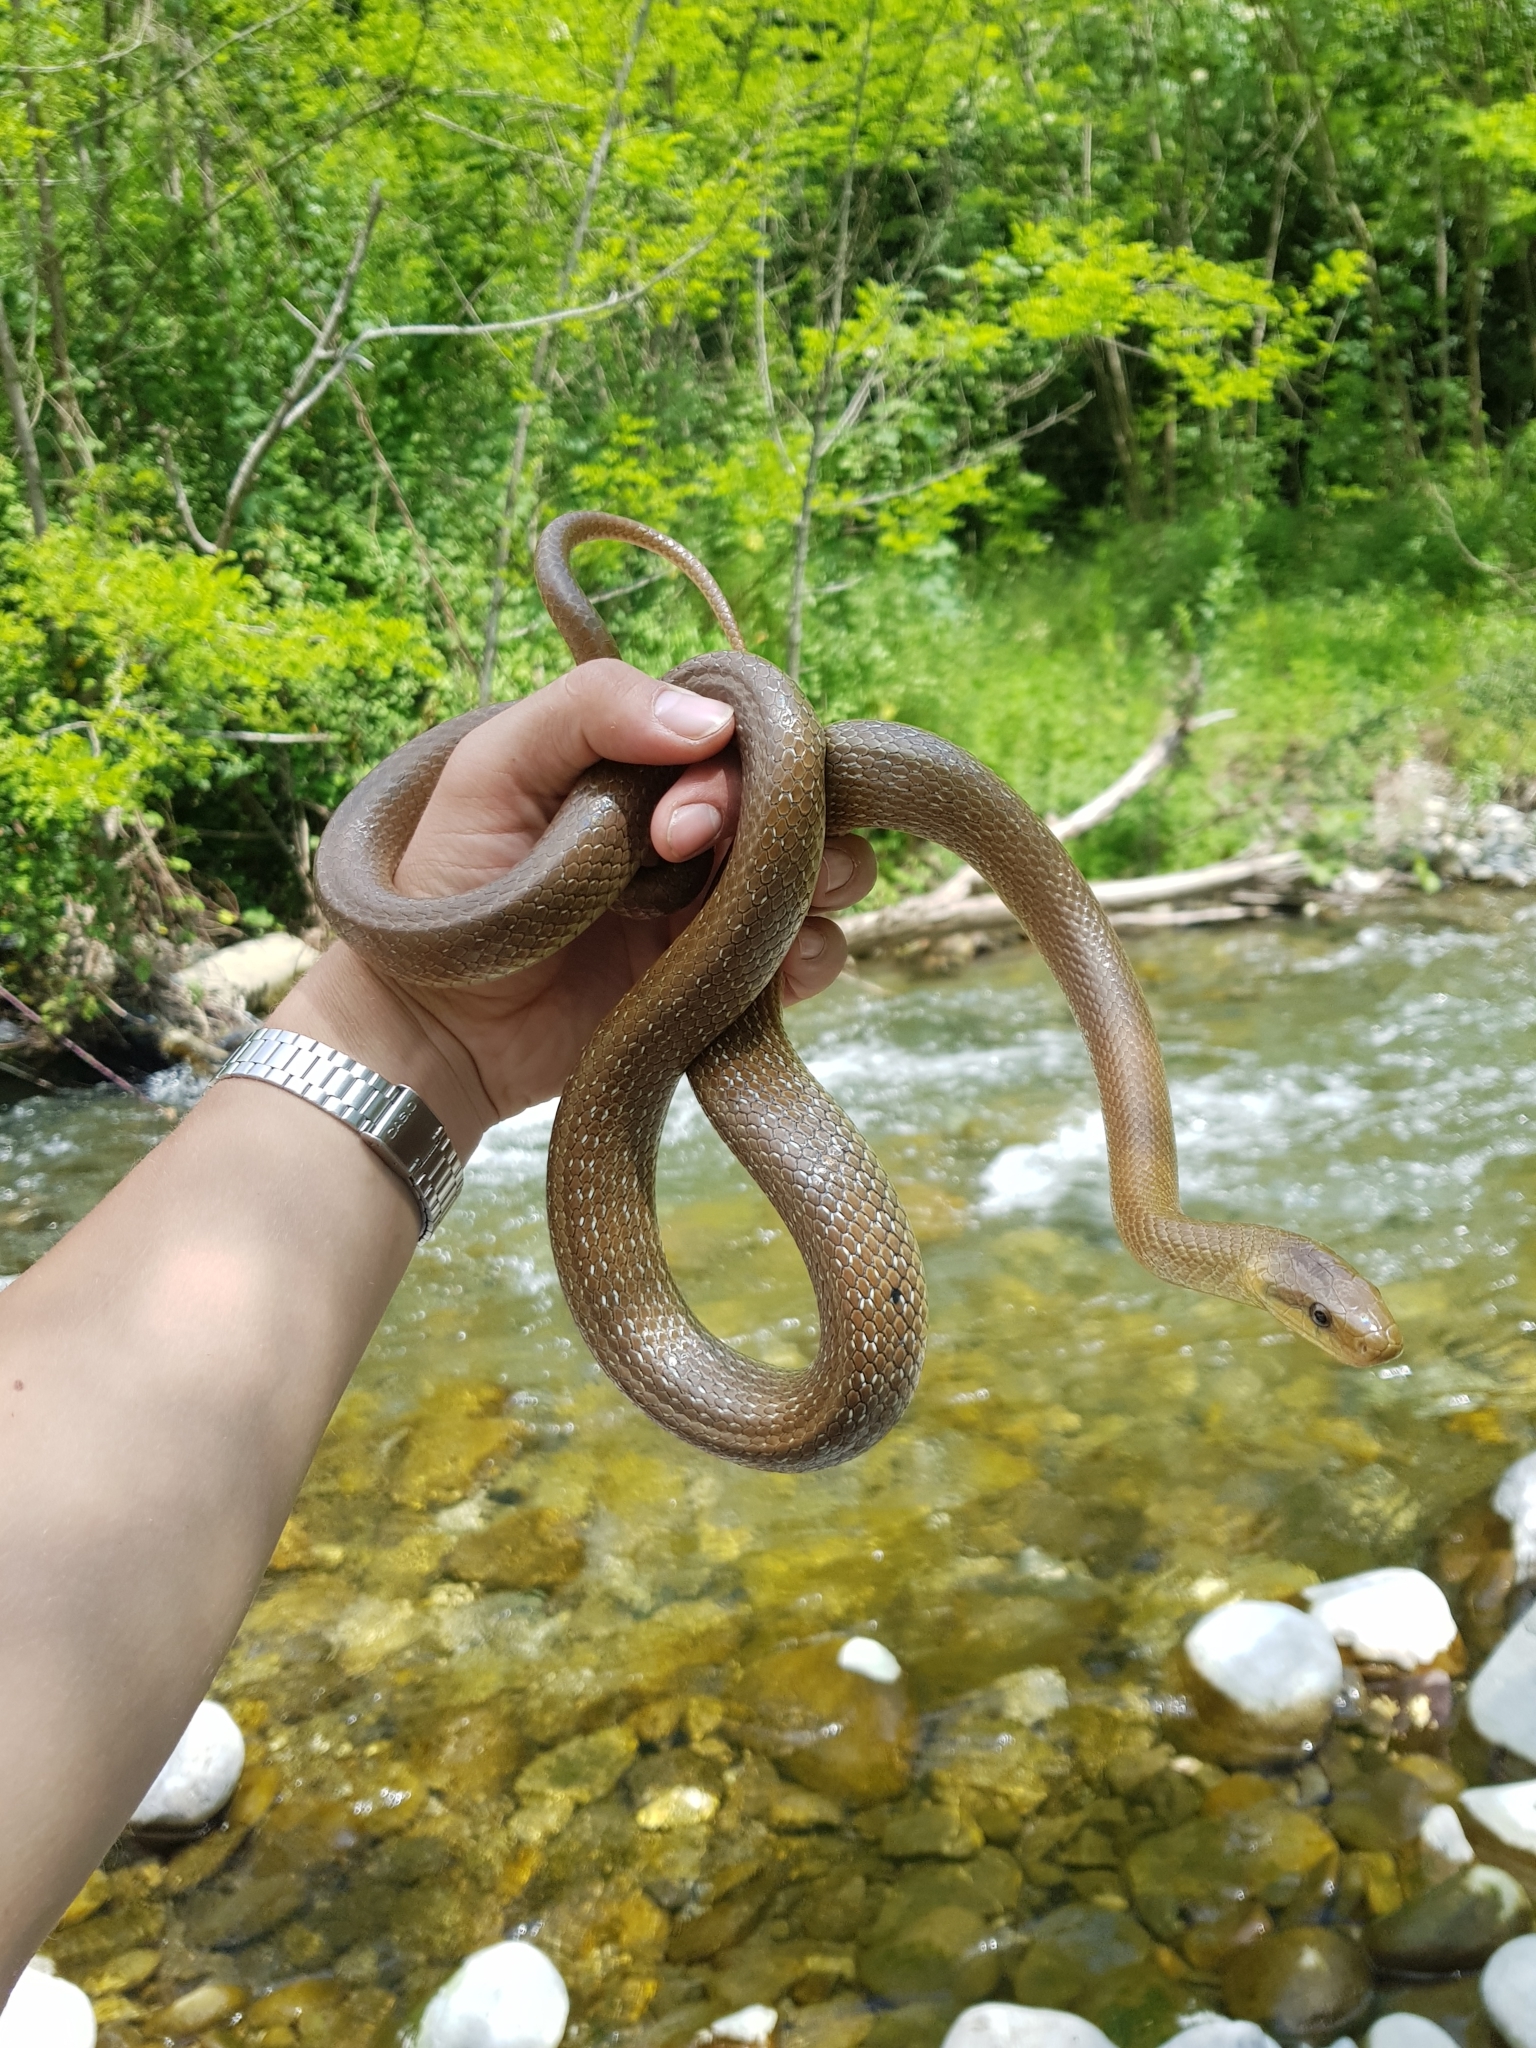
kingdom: Animalia
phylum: Chordata
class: Squamata
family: Colubridae
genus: Zamenis
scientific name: Zamenis longissimus
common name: Aesculapean snake
